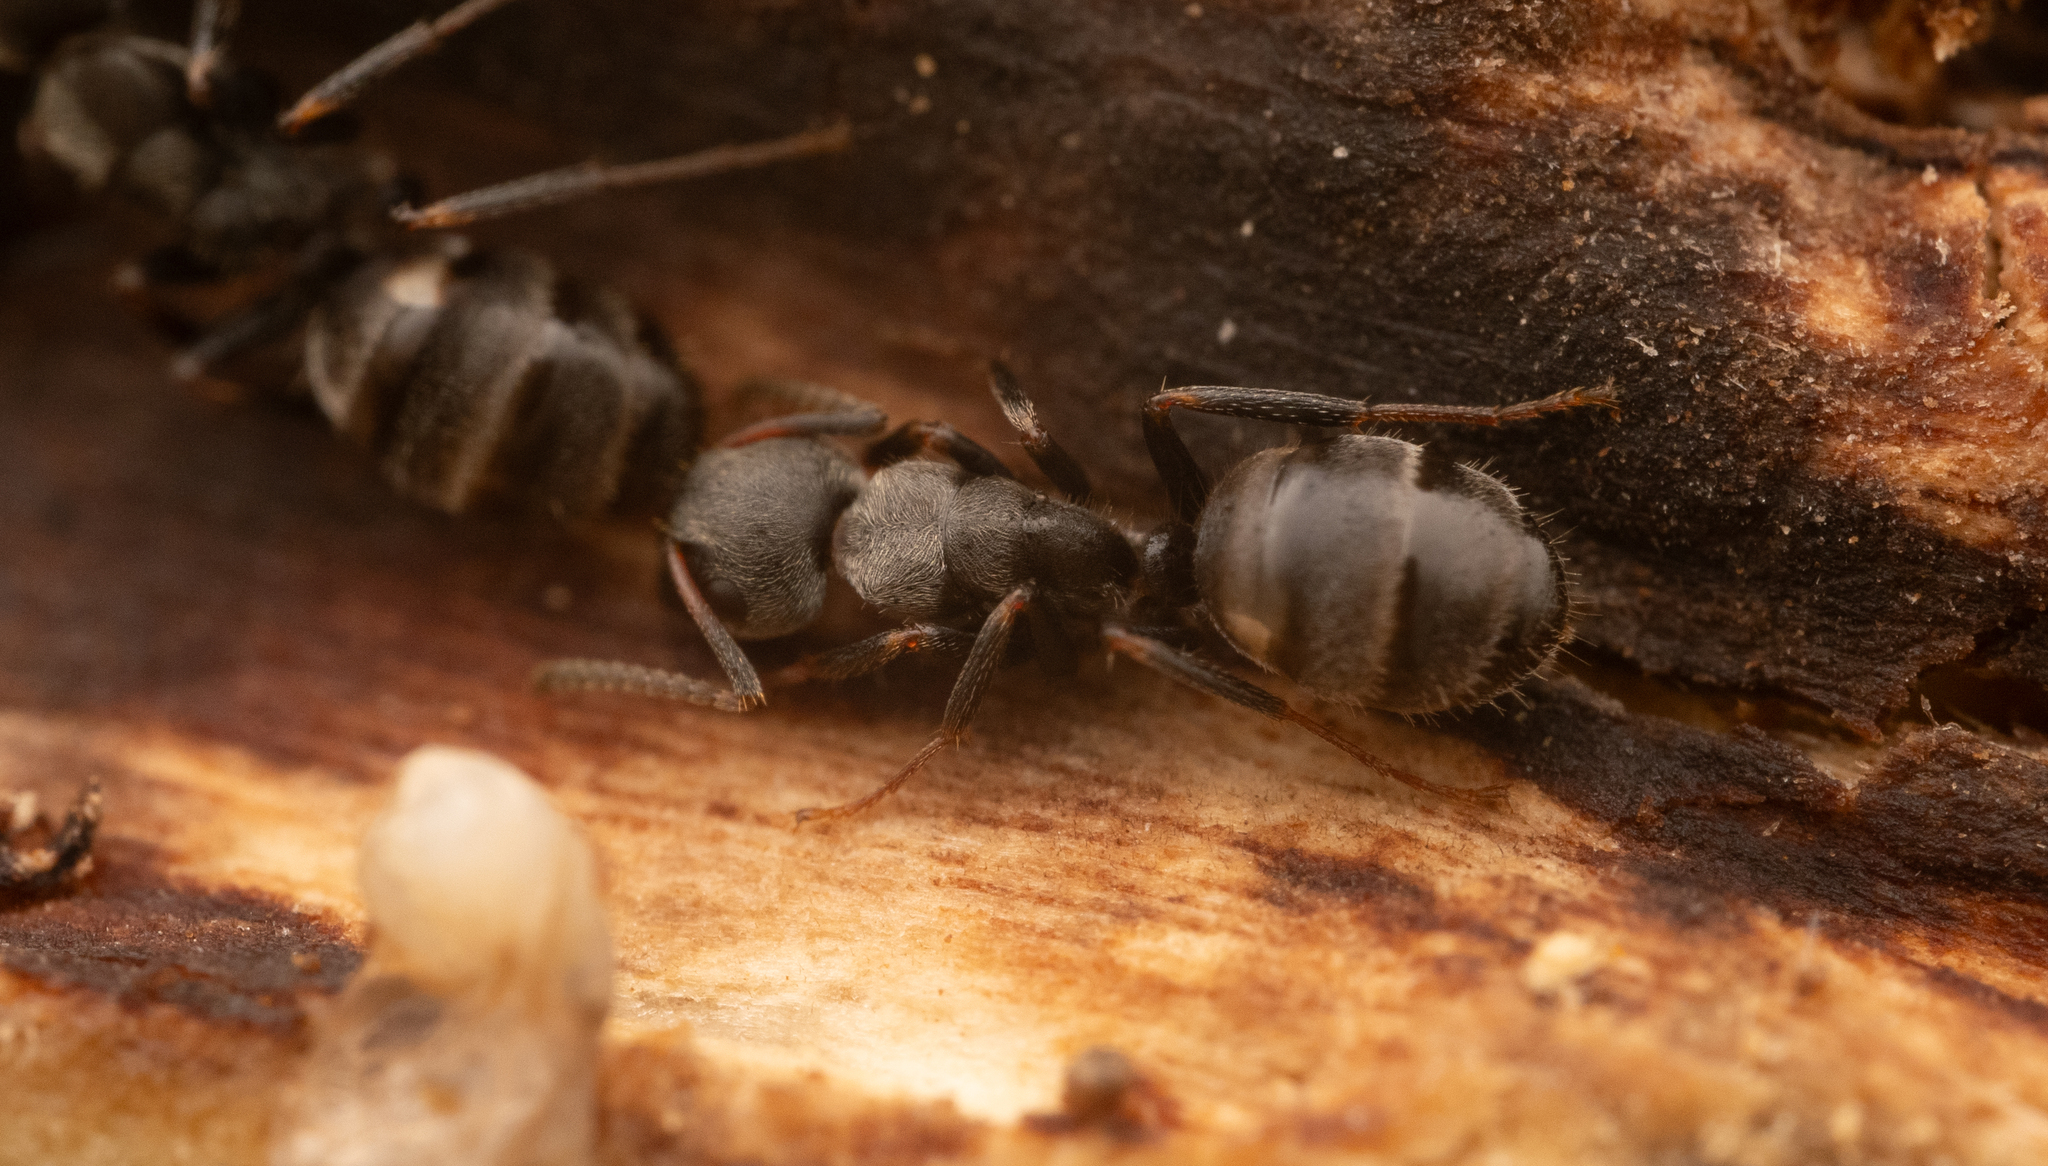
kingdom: Animalia
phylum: Arthropoda
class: Insecta
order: Hymenoptera
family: Formicidae
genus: Camponotus
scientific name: Camponotus
